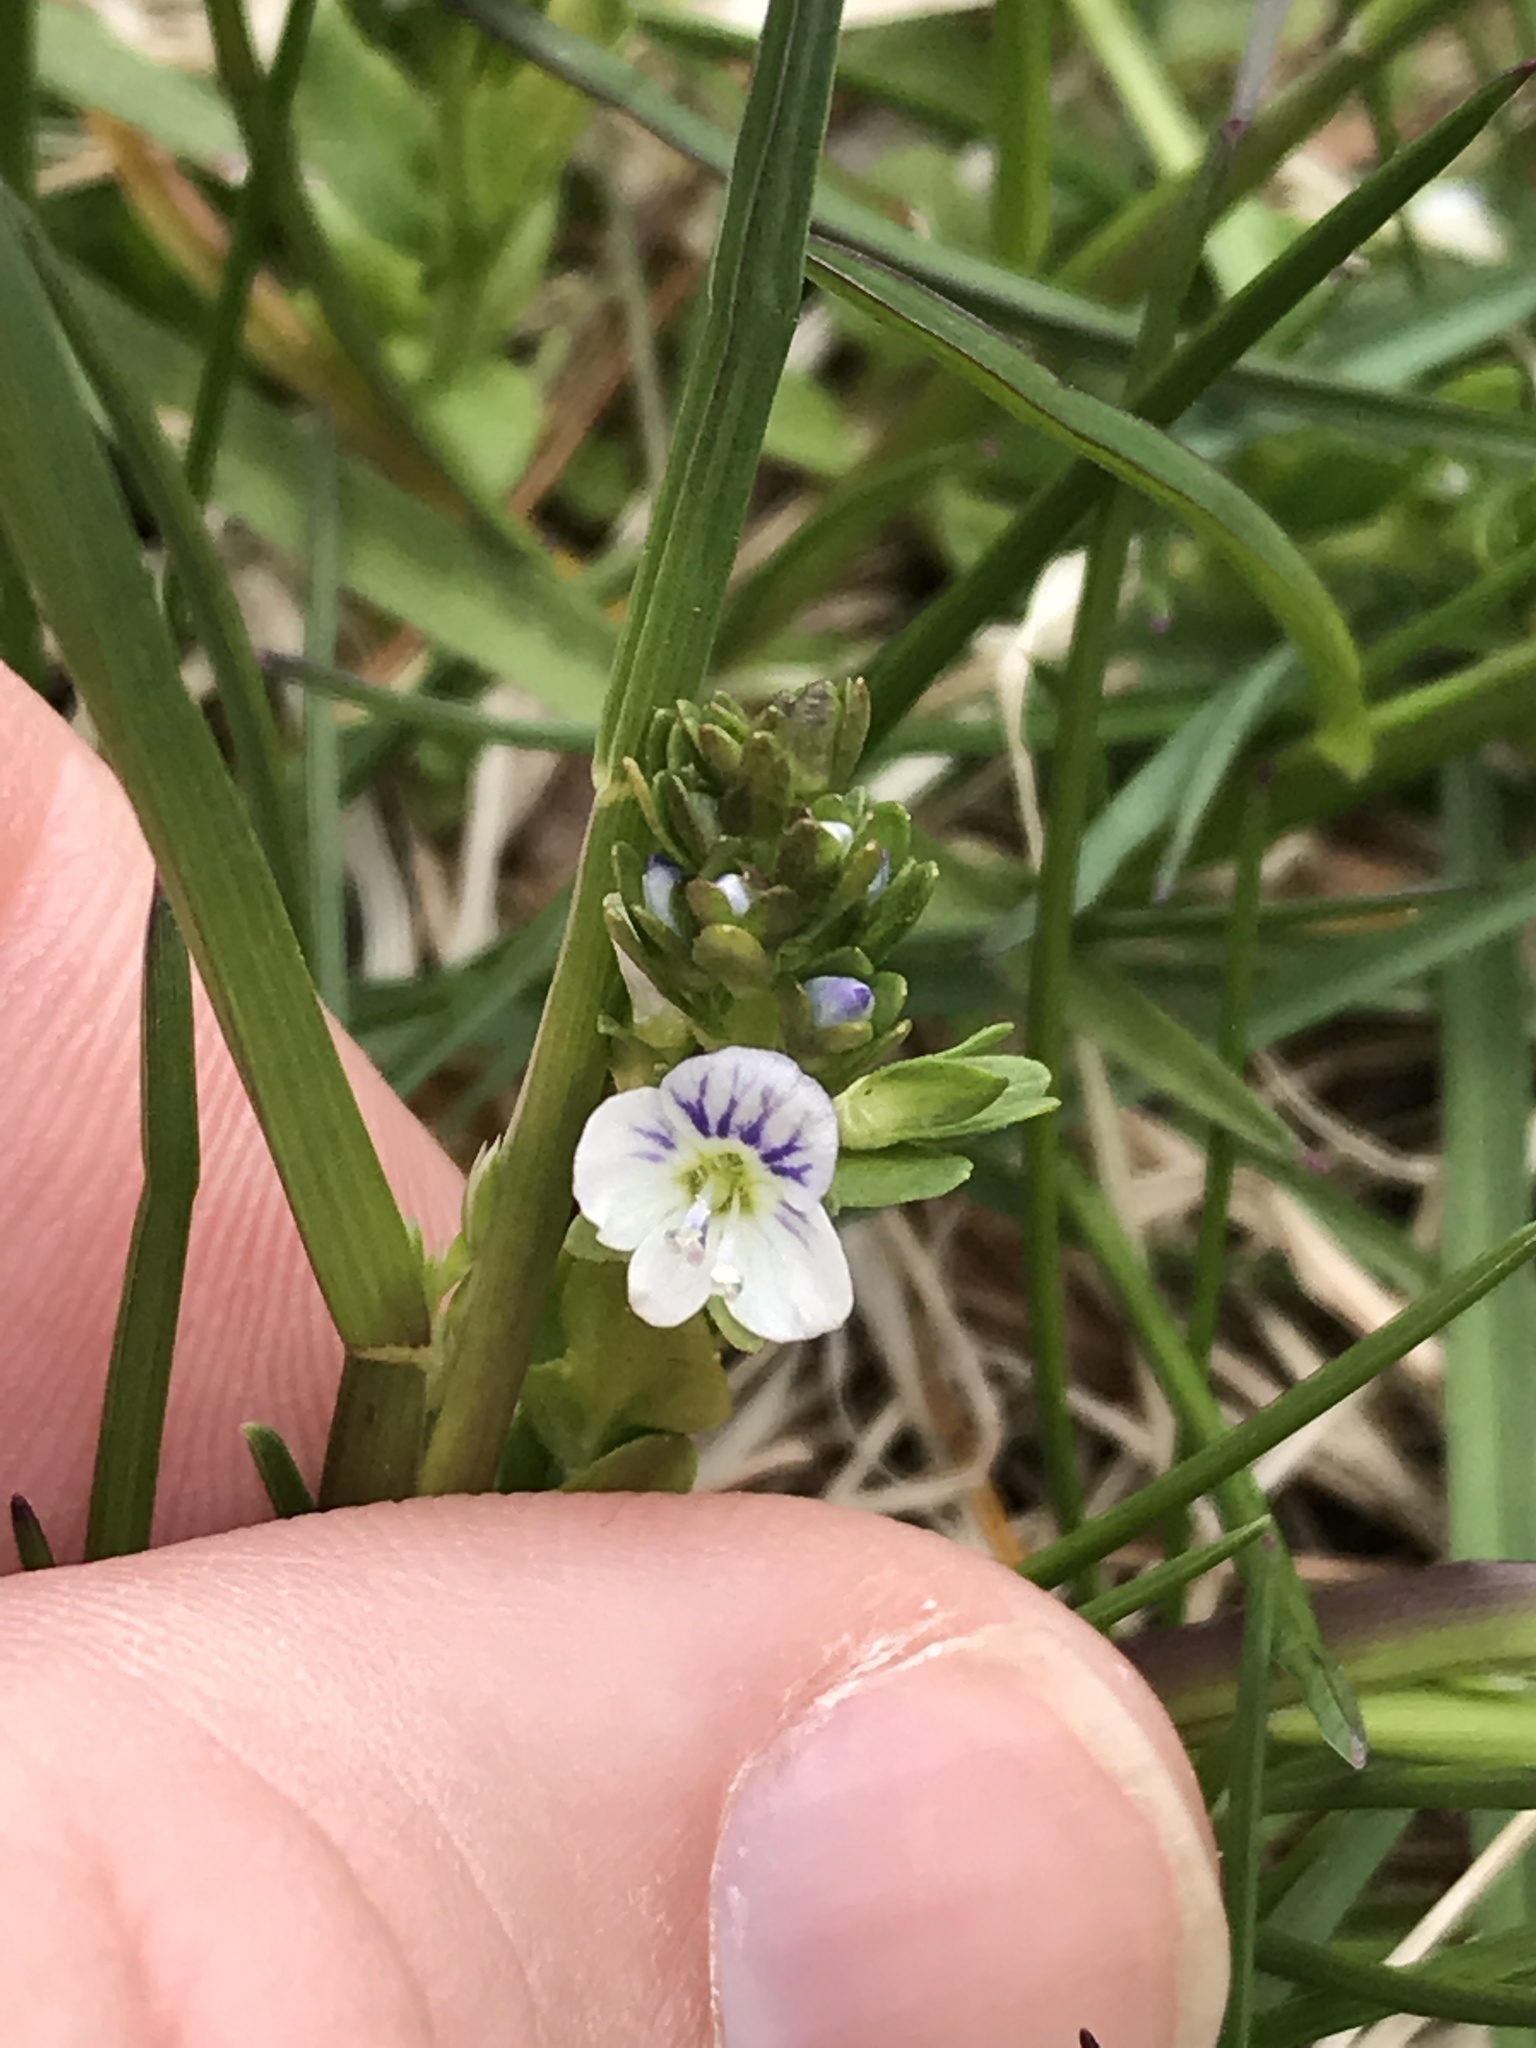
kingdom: Plantae
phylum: Tracheophyta
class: Magnoliopsida
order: Lamiales
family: Plantaginaceae
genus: Veronica
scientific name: Veronica serpyllifolia
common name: Thyme-leaved speedwell
